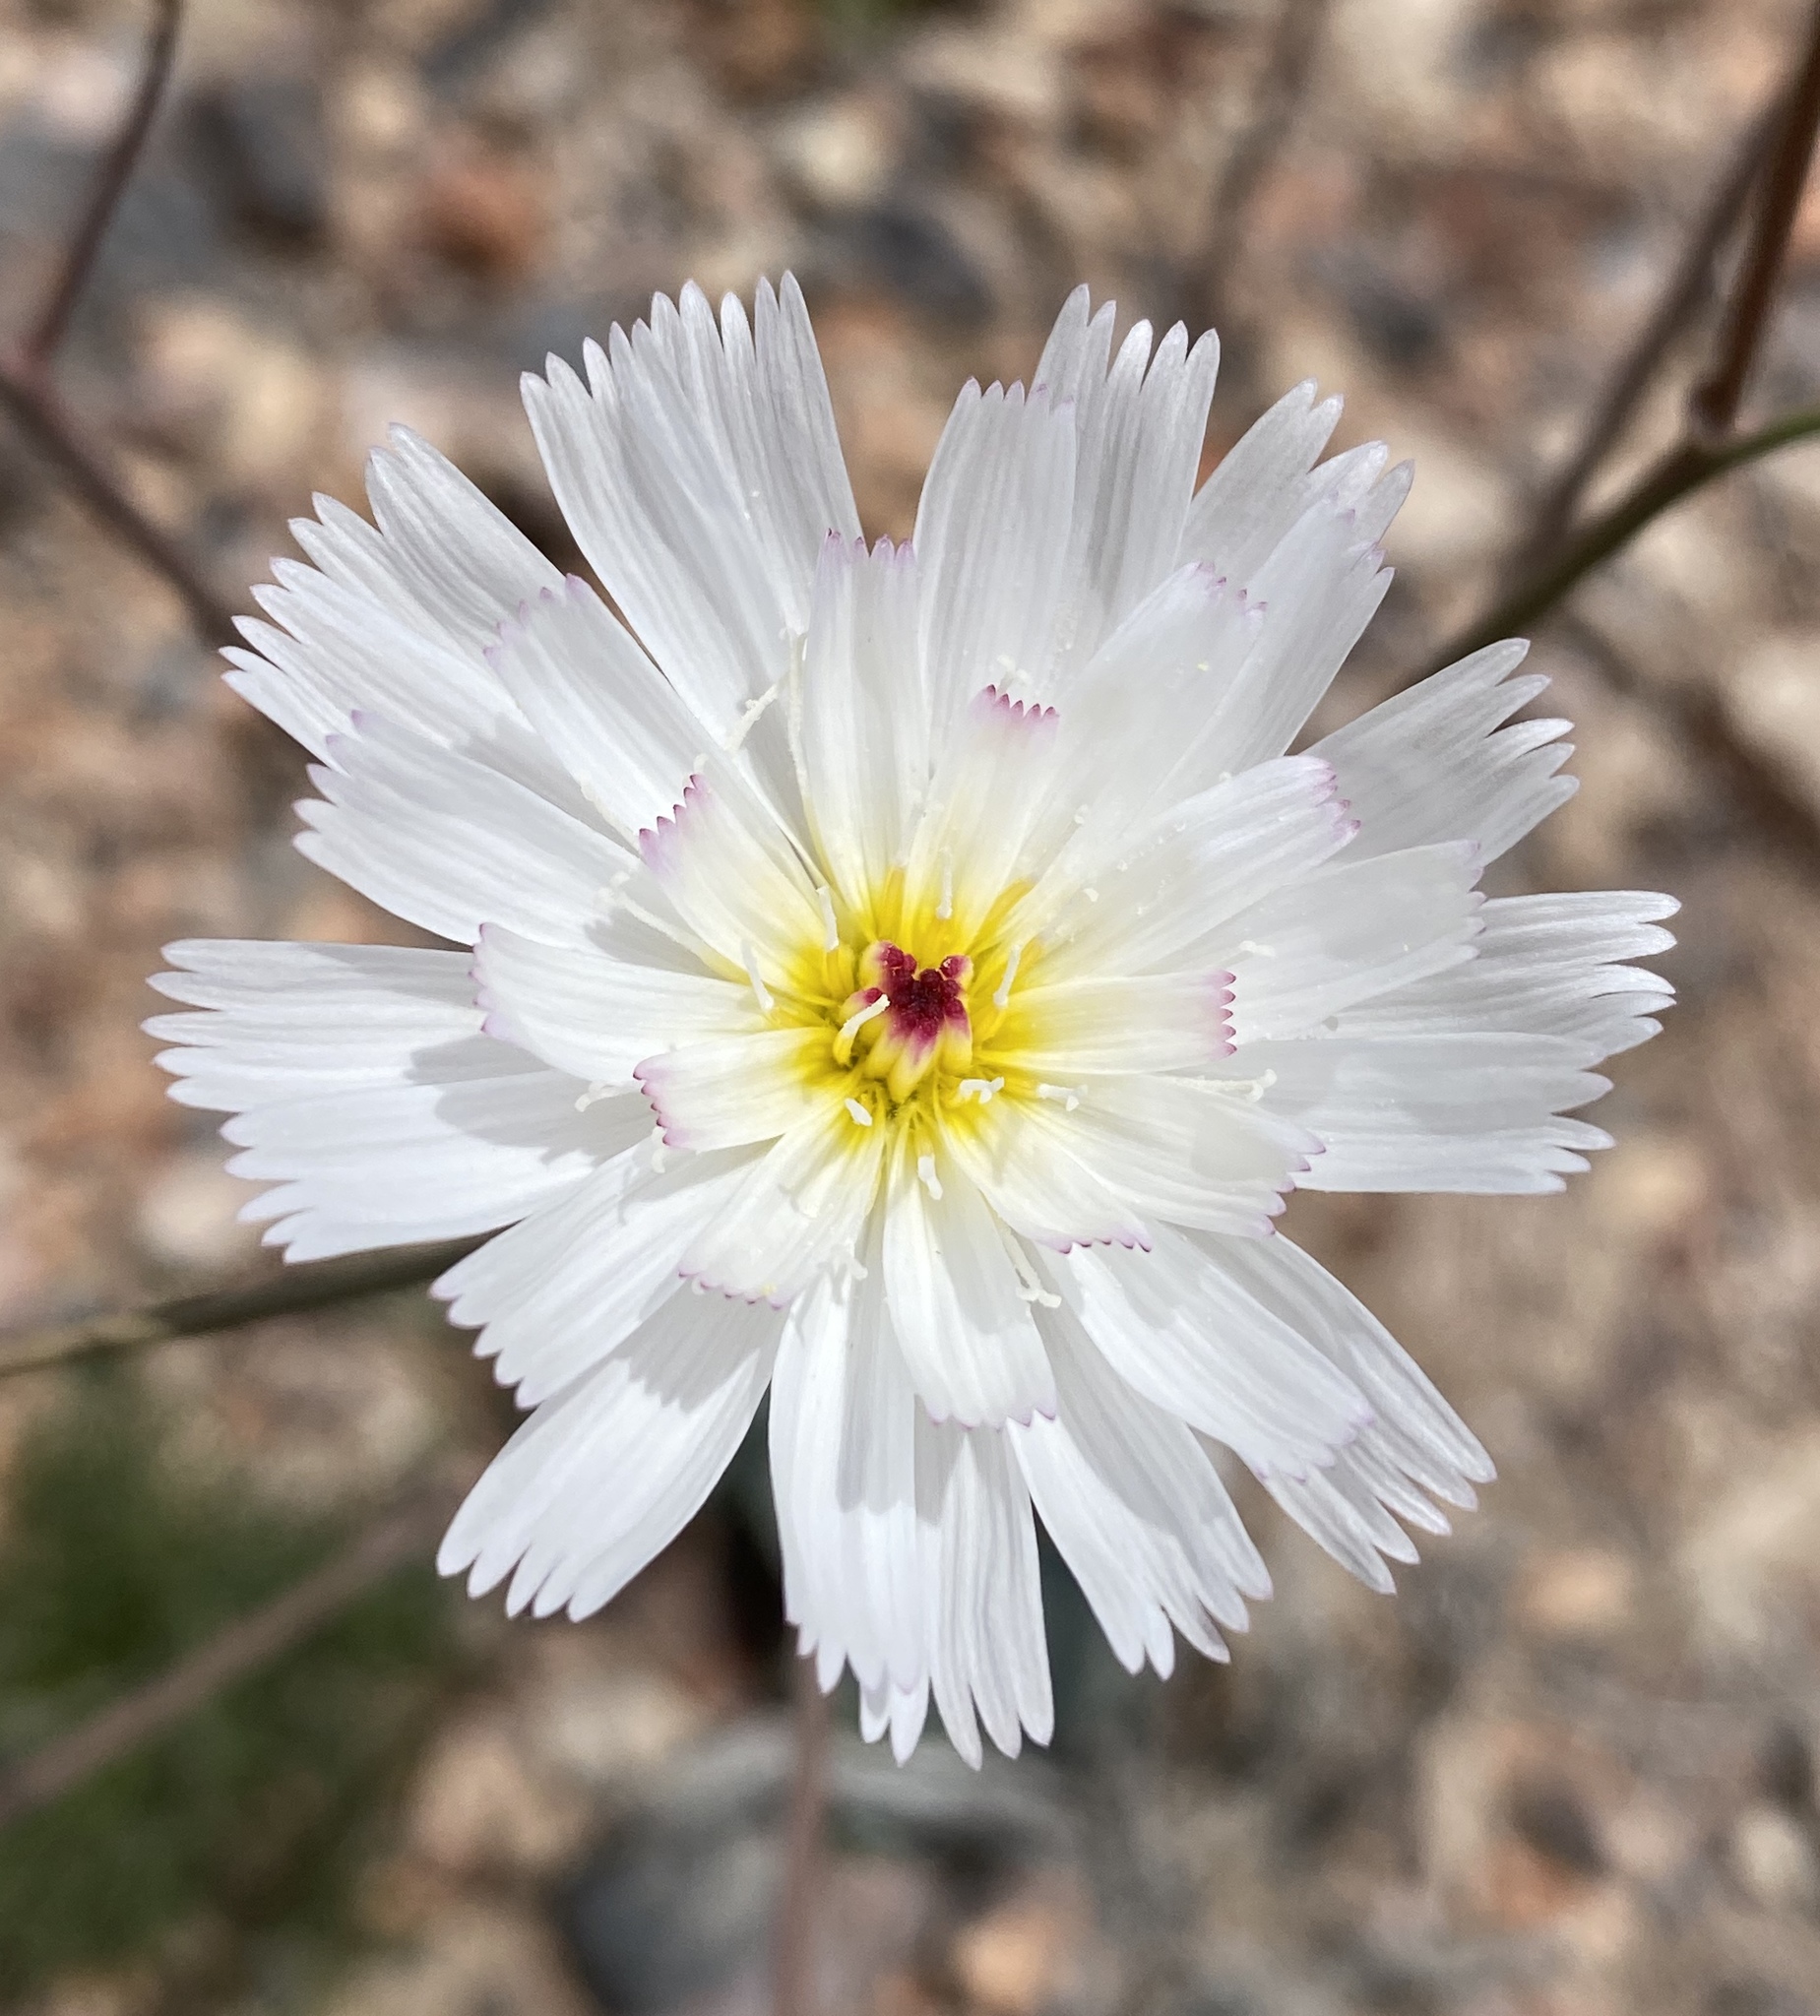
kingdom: Plantae
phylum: Tracheophyta
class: Magnoliopsida
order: Asterales
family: Asteraceae
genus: Atrichoseris
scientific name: Atrichoseris platyphylla
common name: Tobaccoweed
